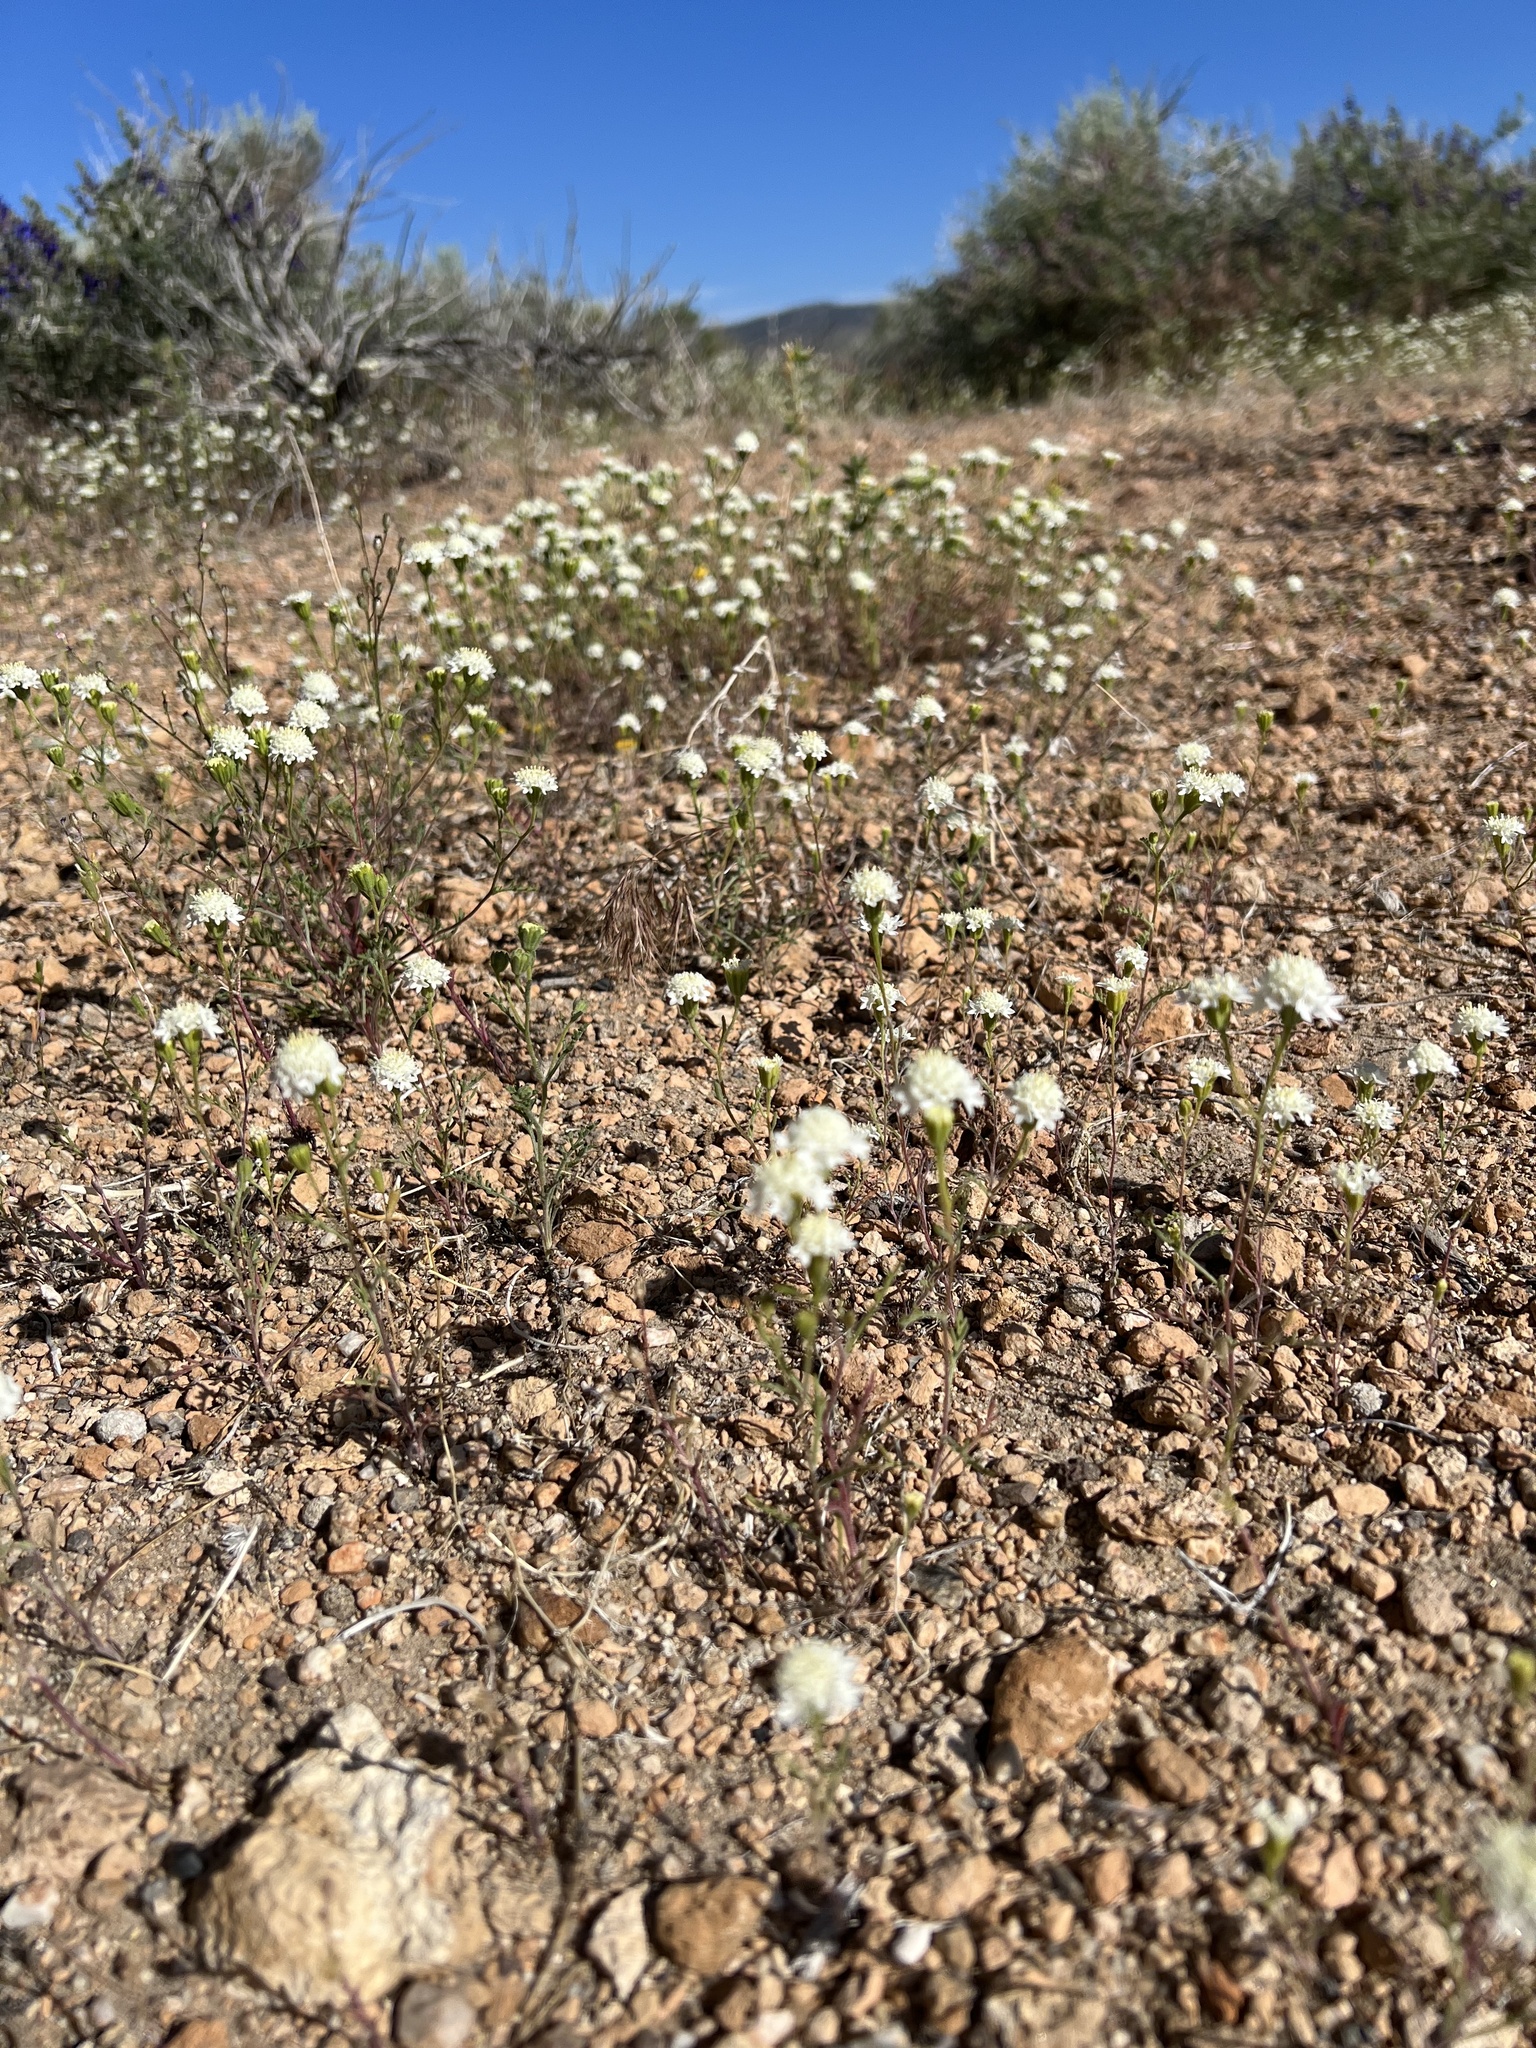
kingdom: Plantae
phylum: Tracheophyta
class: Magnoliopsida
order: Asterales
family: Asteraceae
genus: Chaenactis
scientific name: Chaenactis stevioides
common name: Desert pincushion
